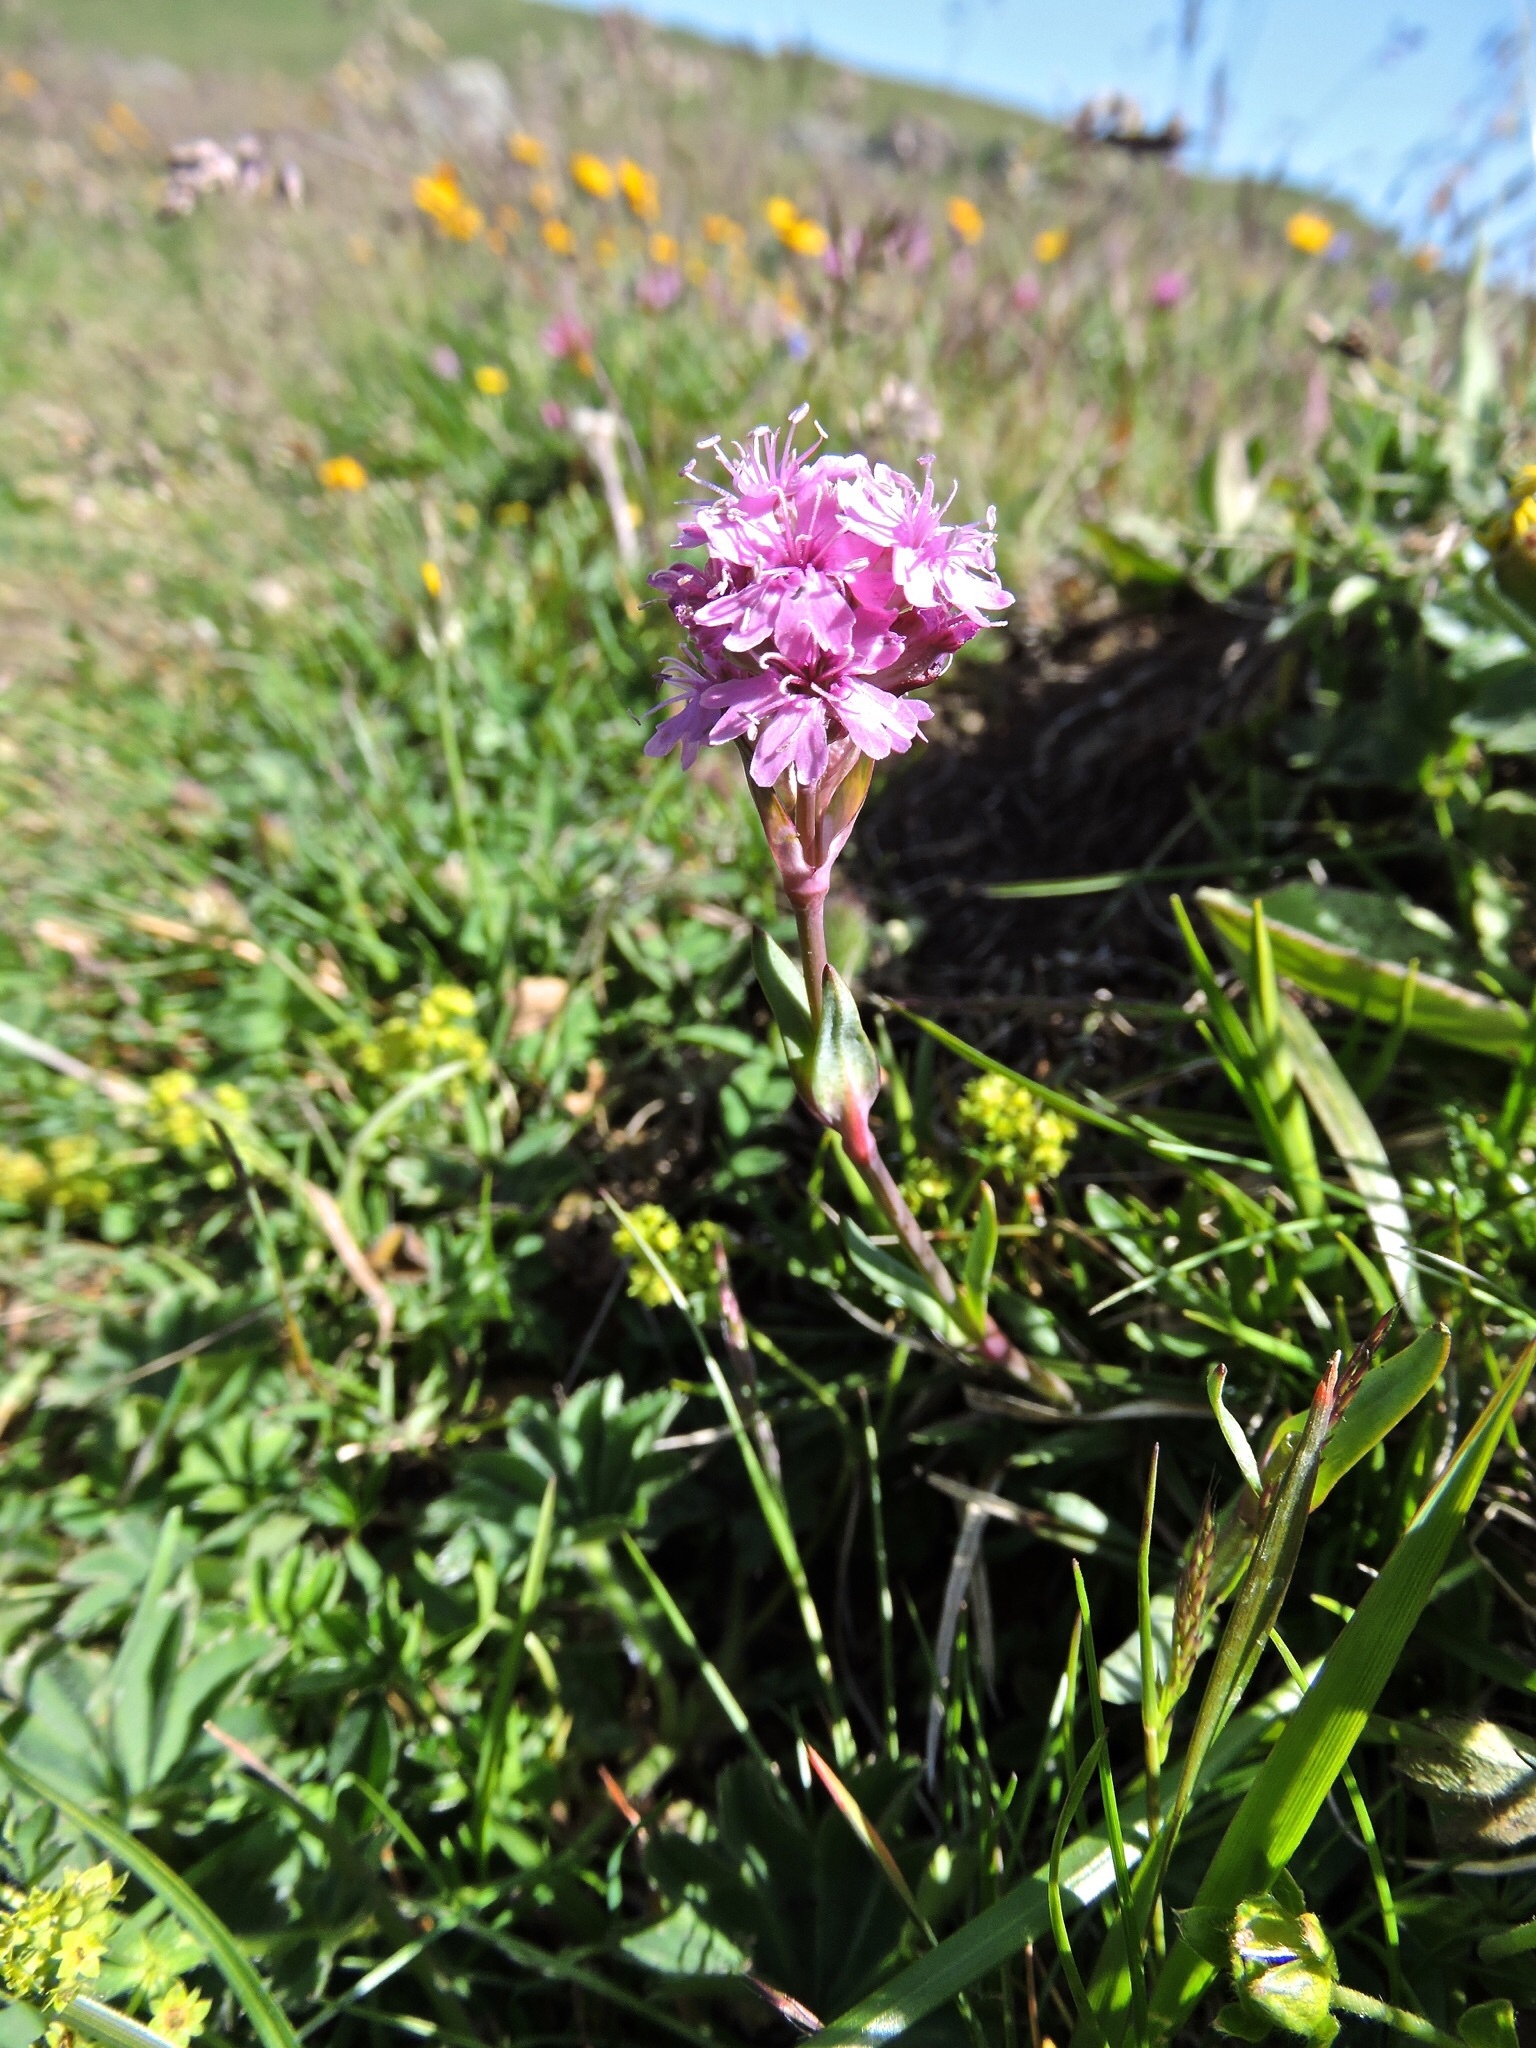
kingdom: Plantae
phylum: Tracheophyta
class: Magnoliopsida
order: Caryophyllales
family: Caryophyllaceae
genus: Viscaria
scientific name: Viscaria alpina
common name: Alpine campion
